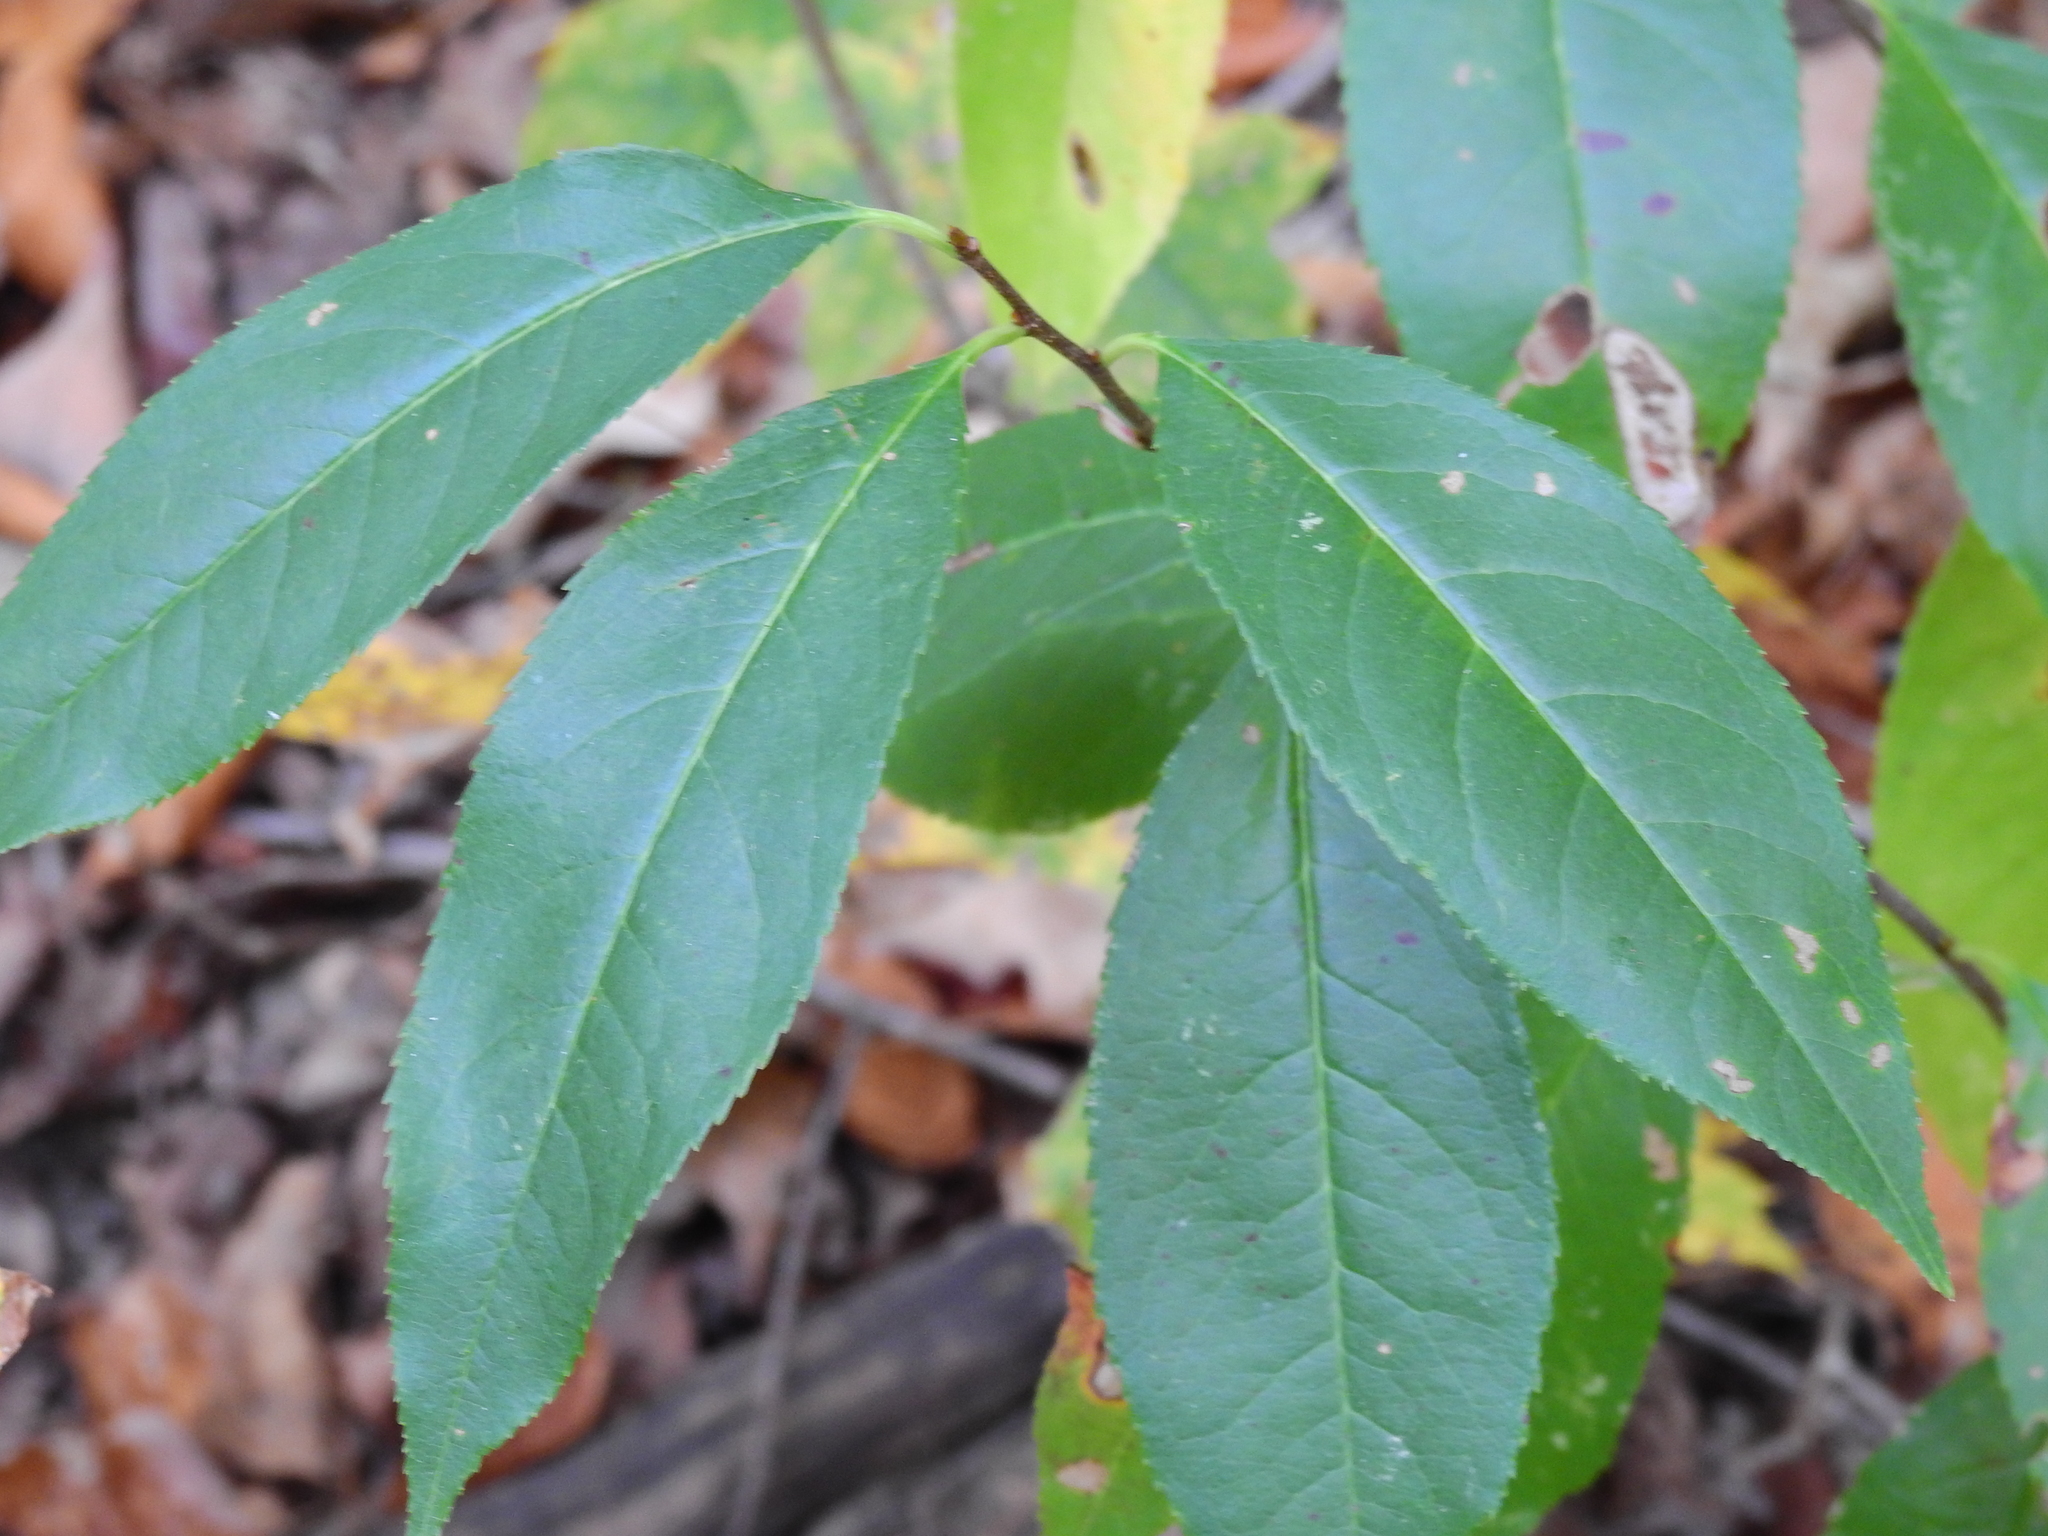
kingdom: Plantae
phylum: Tracheophyta
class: Magnoliopsida
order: Rosales
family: Rosaceae
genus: Prunus
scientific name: Prunus serotina
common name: Black cherry
